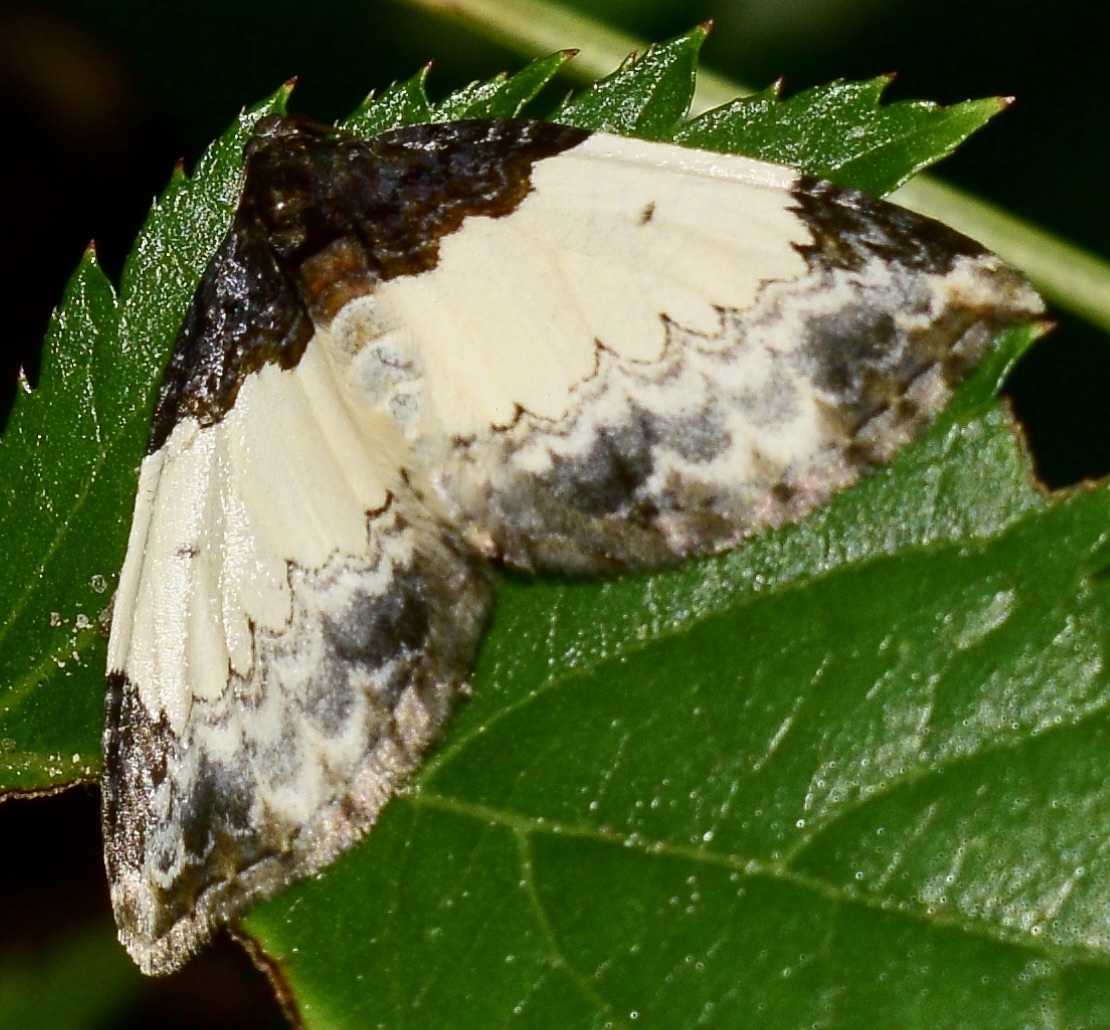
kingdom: Animalia
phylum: Arthropoda
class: Insecta
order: Lepidoptera
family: Geometridae
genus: Mesoleuca
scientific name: Mesoleuca ruficillata
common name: White-ribboned carpet moth
